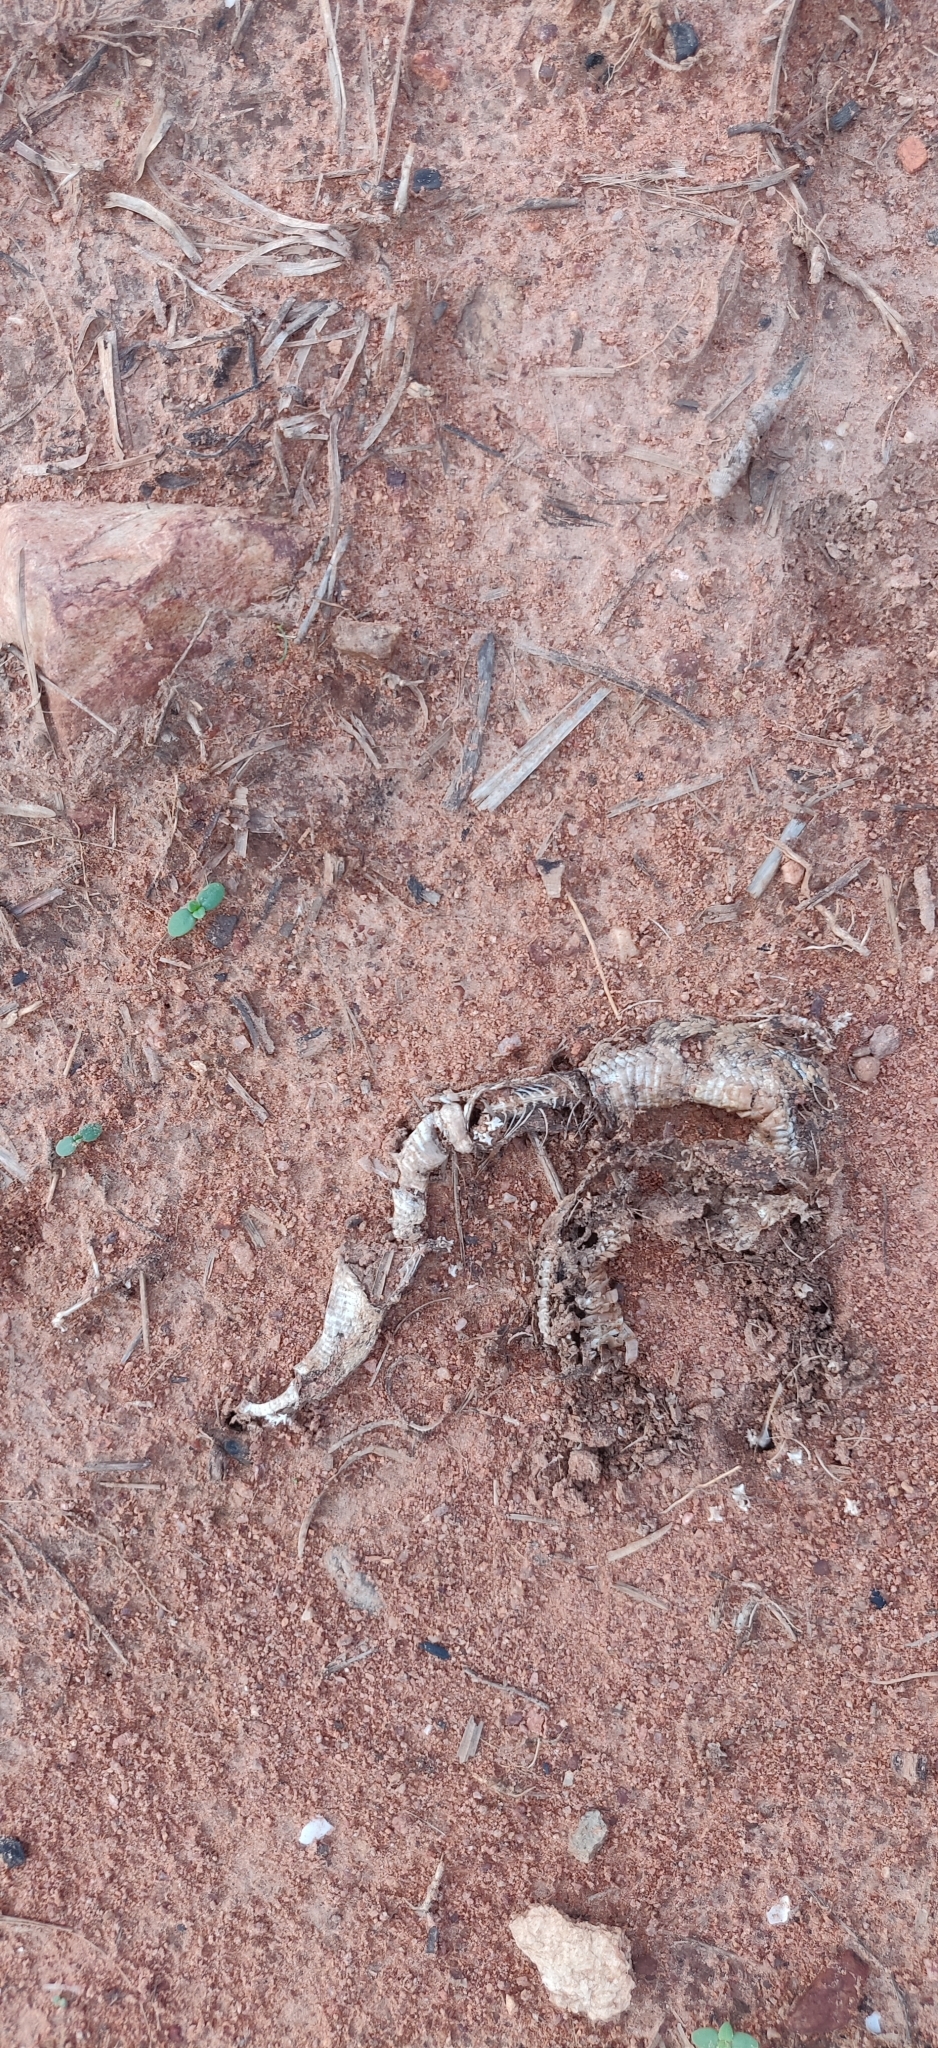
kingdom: Animalia
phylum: Chordata
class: Squamata
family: Viperidae
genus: Echis
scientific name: Echis carinatus
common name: Saw-scaled viper
